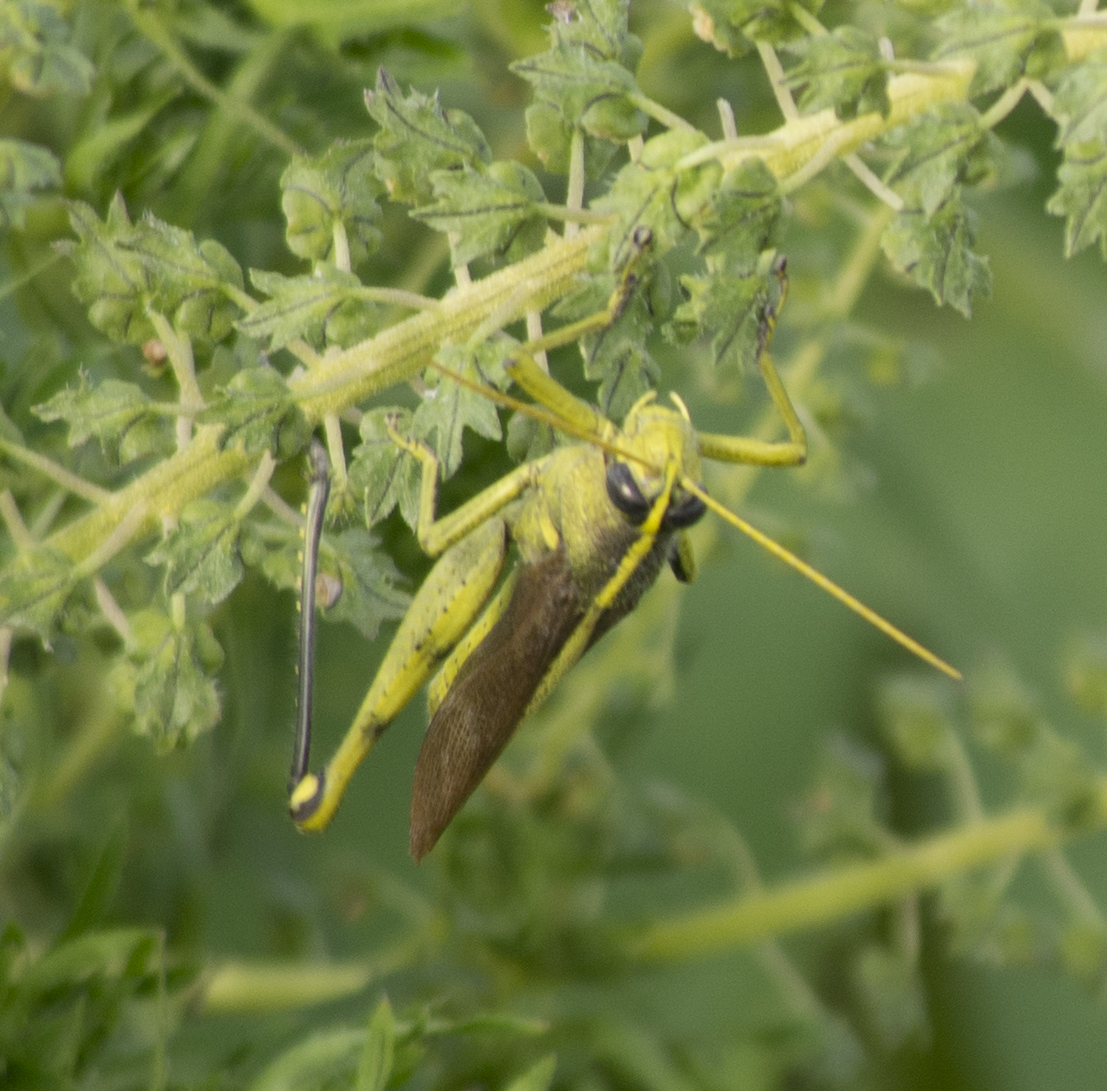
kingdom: Animalia
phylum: Arthropoda
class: Insecta
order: Orthoptera
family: Acrididae
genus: Schistocerca
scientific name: Schistocerca obscura
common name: Obscure bird grasshopper
